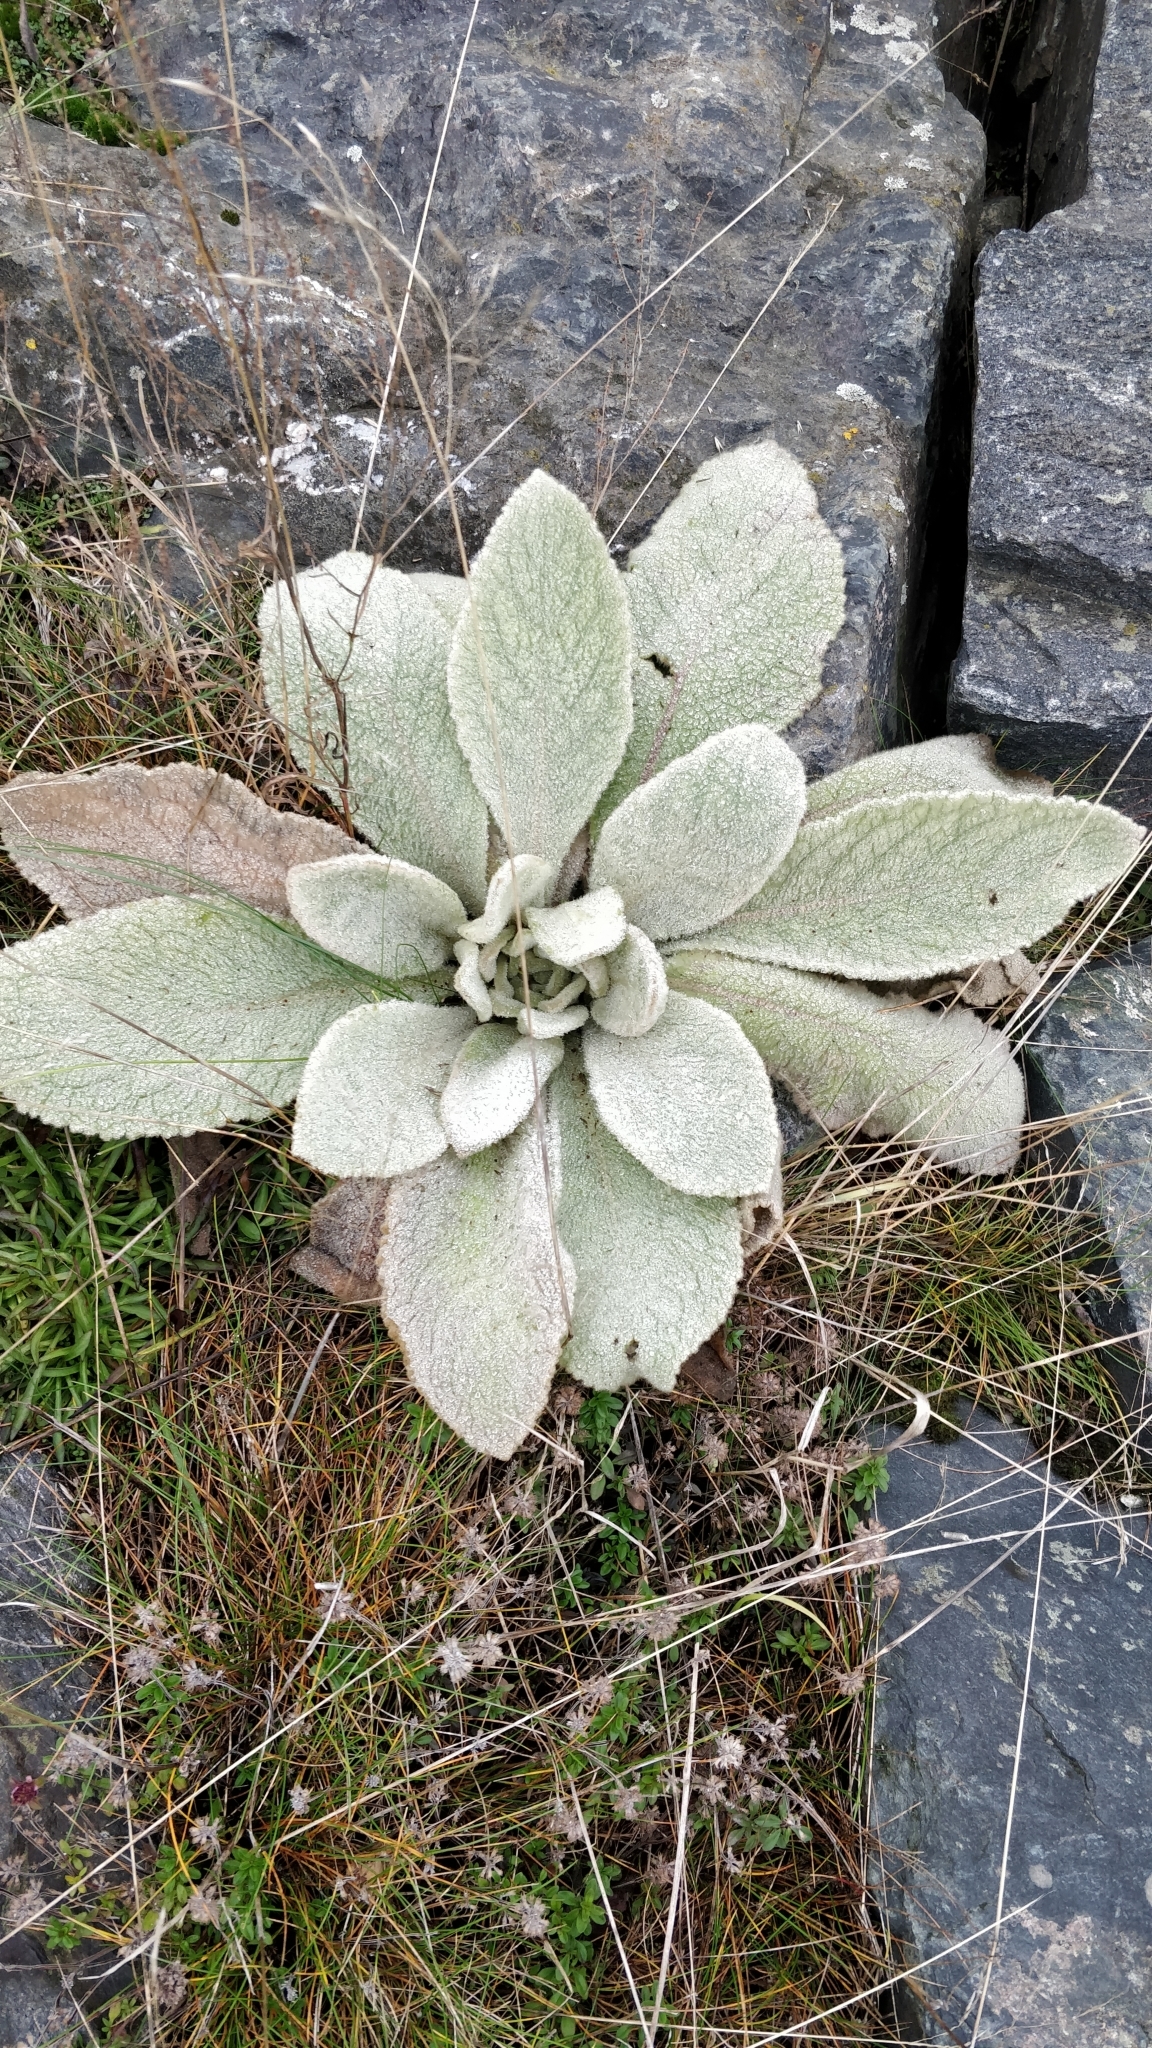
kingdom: Plantae
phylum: Tracheophyta
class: Magnoliopsida
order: Lamiales
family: Scrophulariaceae
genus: Verbascum
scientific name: Verbascum thapsus
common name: Common mullein
